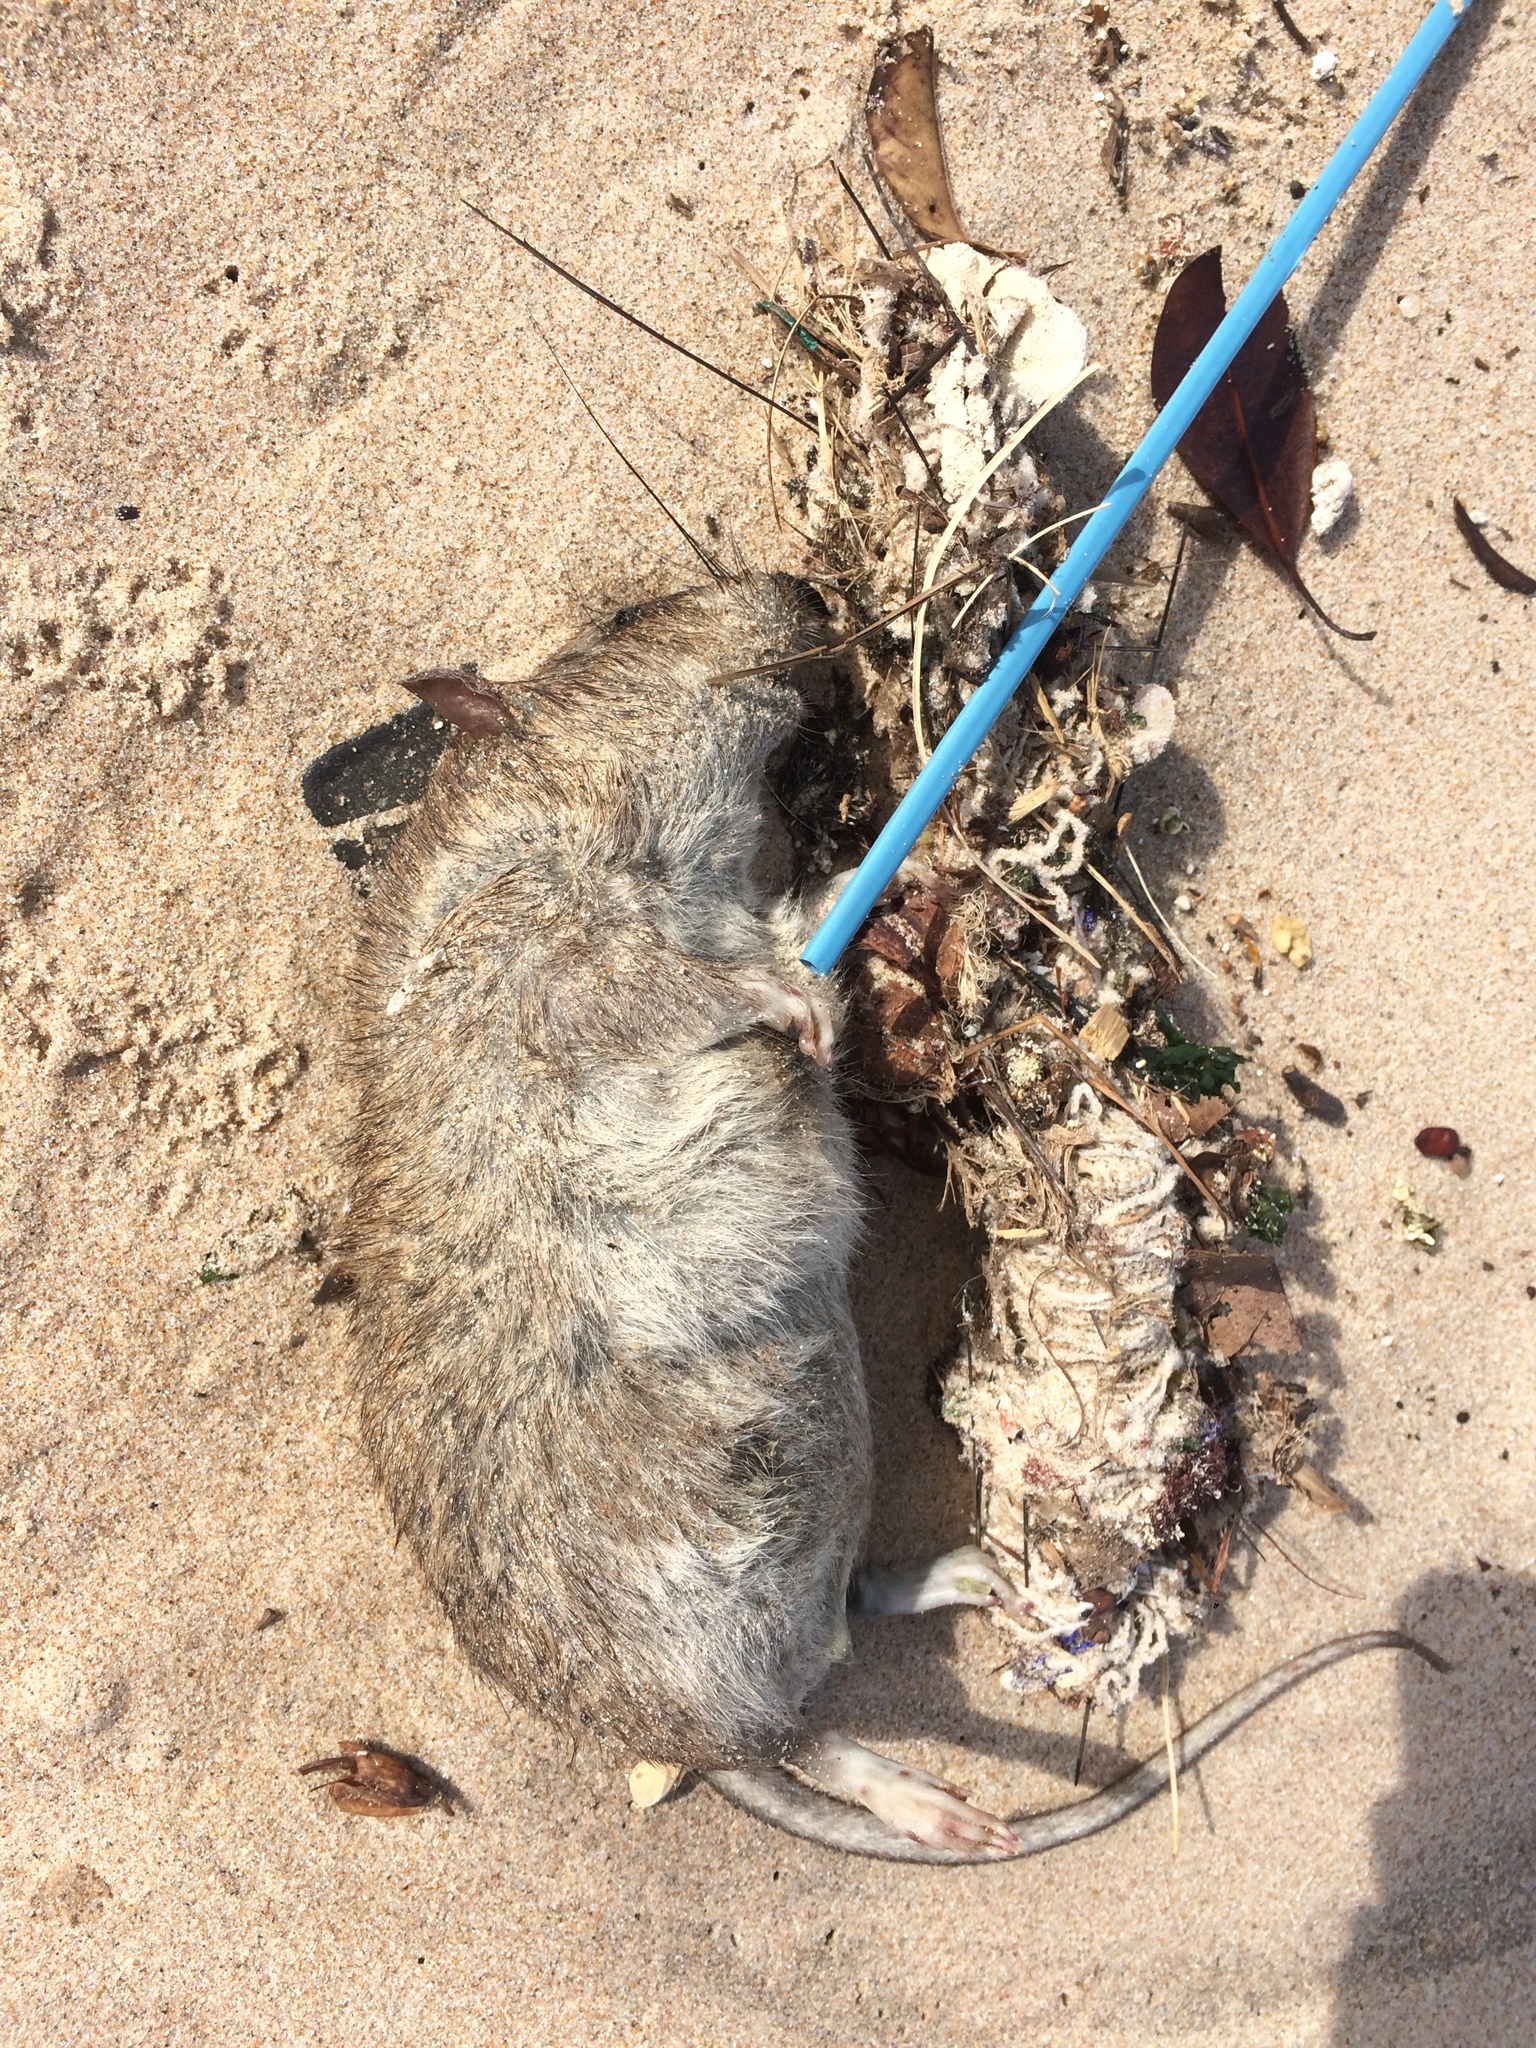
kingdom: Animalia
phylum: Chordata
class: Mammalia
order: Rodentia
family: Muridae
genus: Rattus
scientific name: Rattus norvegicus
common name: Brown rat
